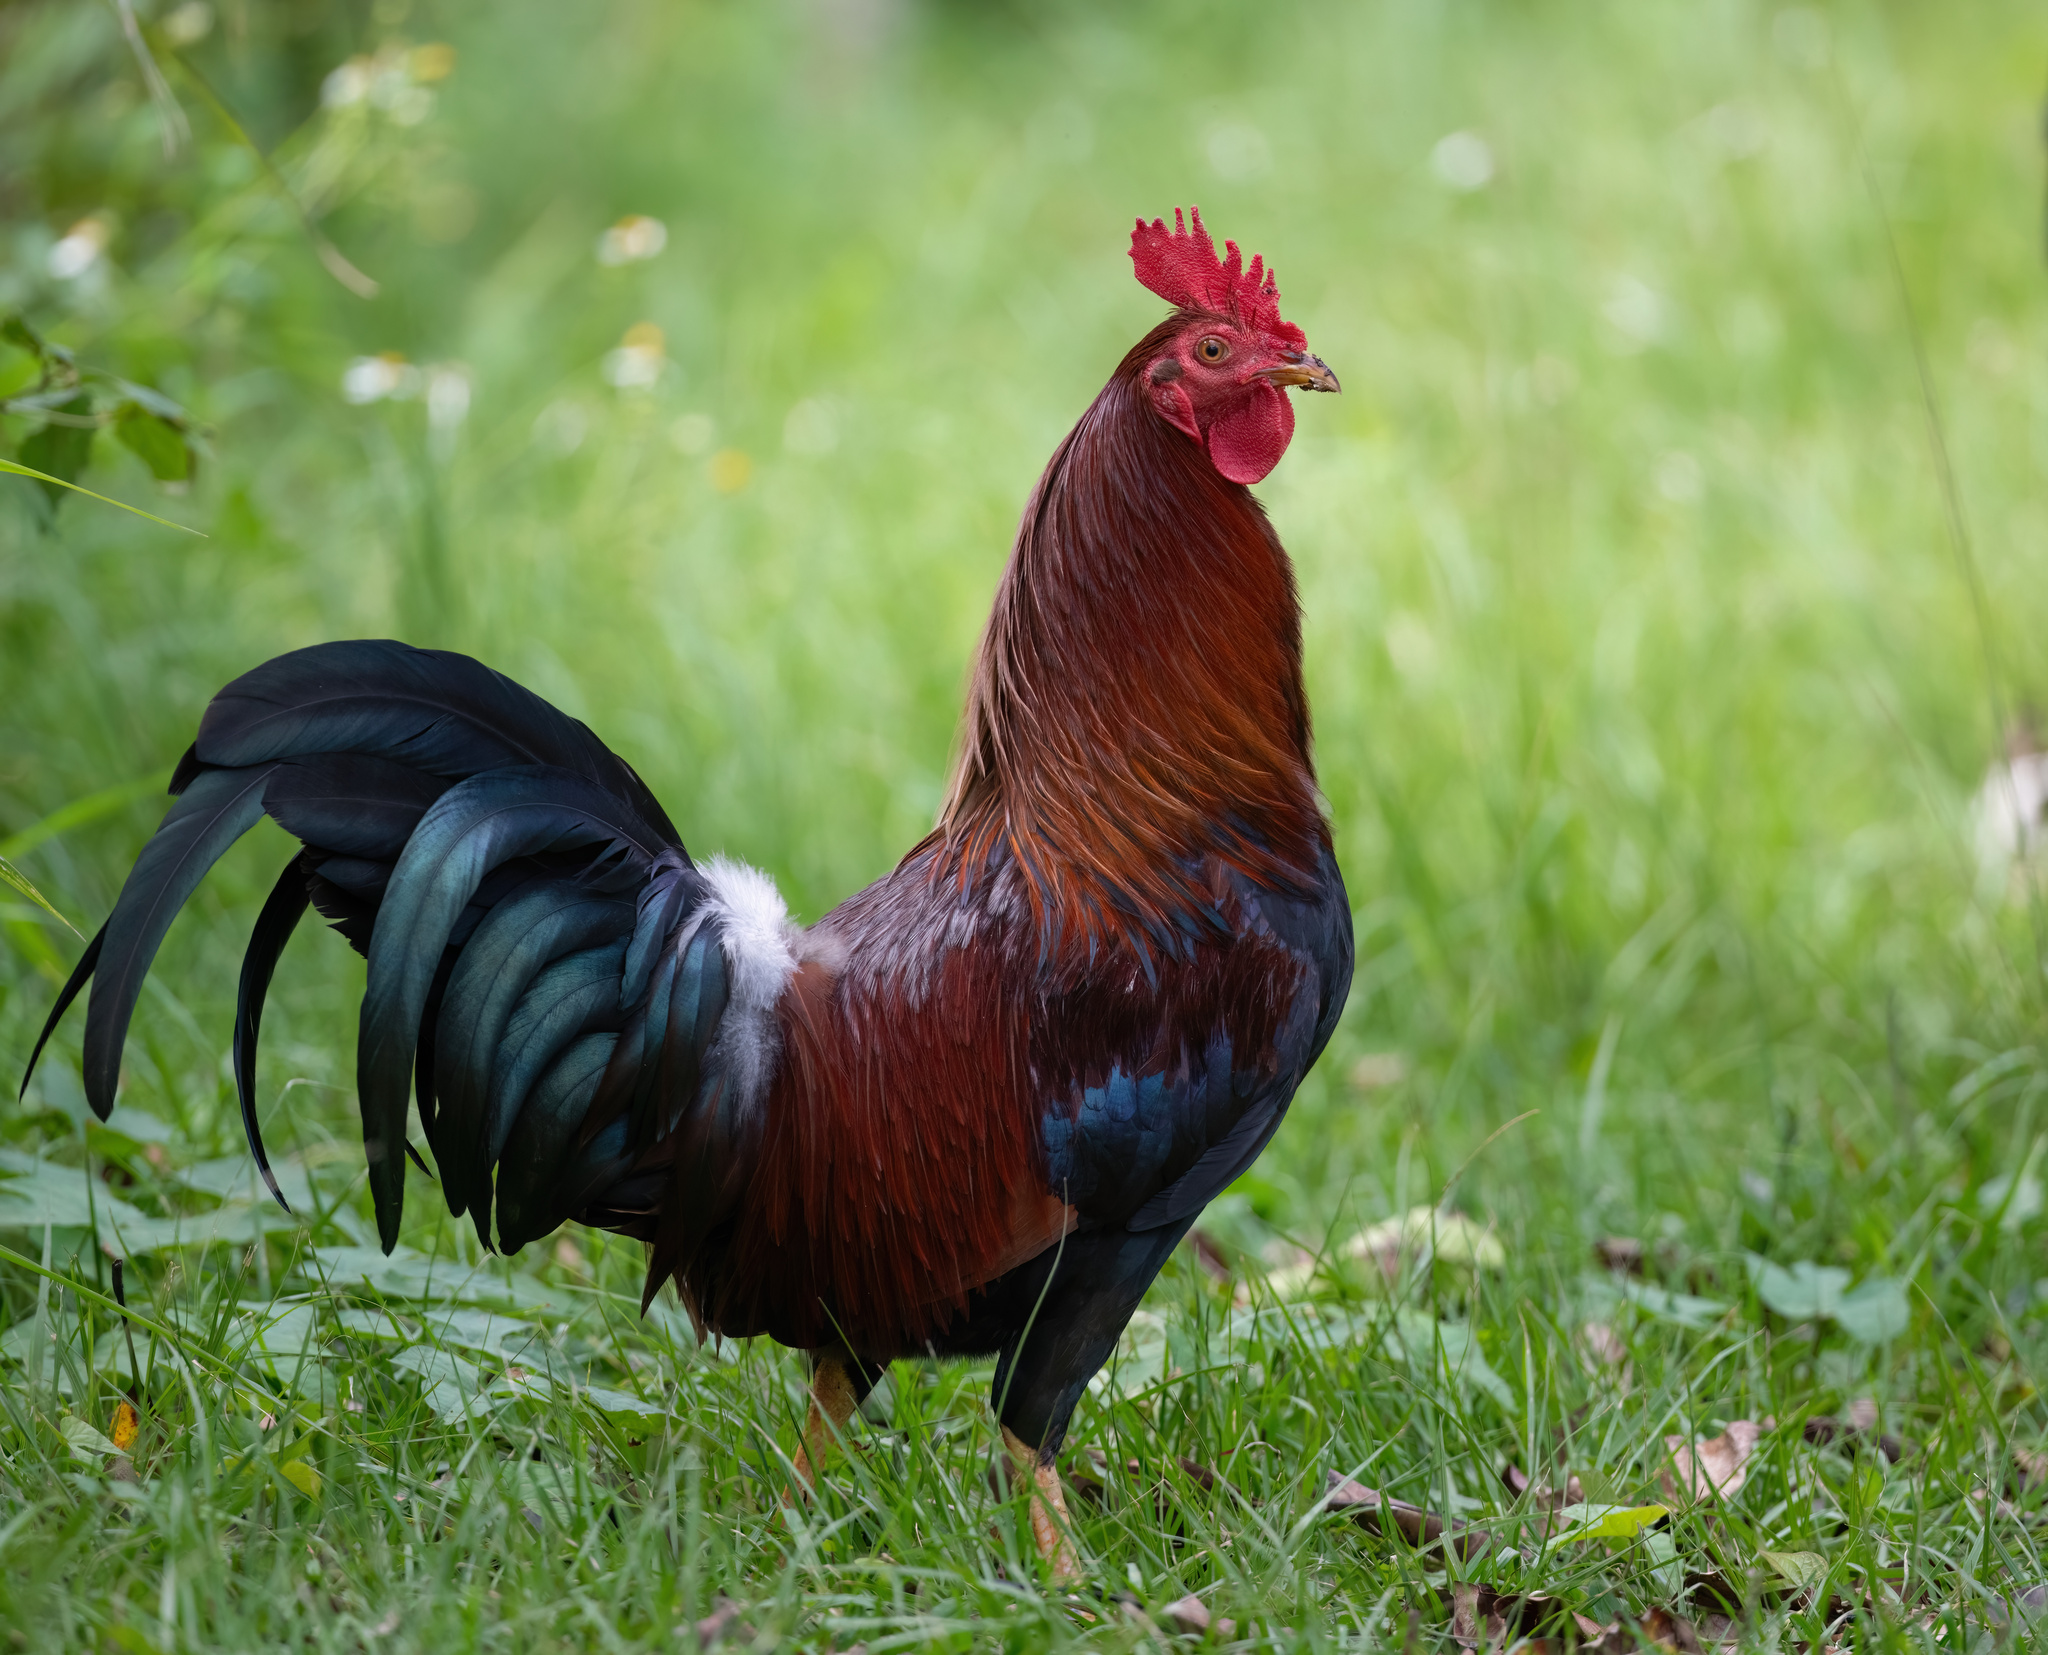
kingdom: Animalia
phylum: Chordata
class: Aves
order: Galliformes
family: Phasianidae
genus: Gallus
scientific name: Gallus gallus
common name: Red junglefowl
